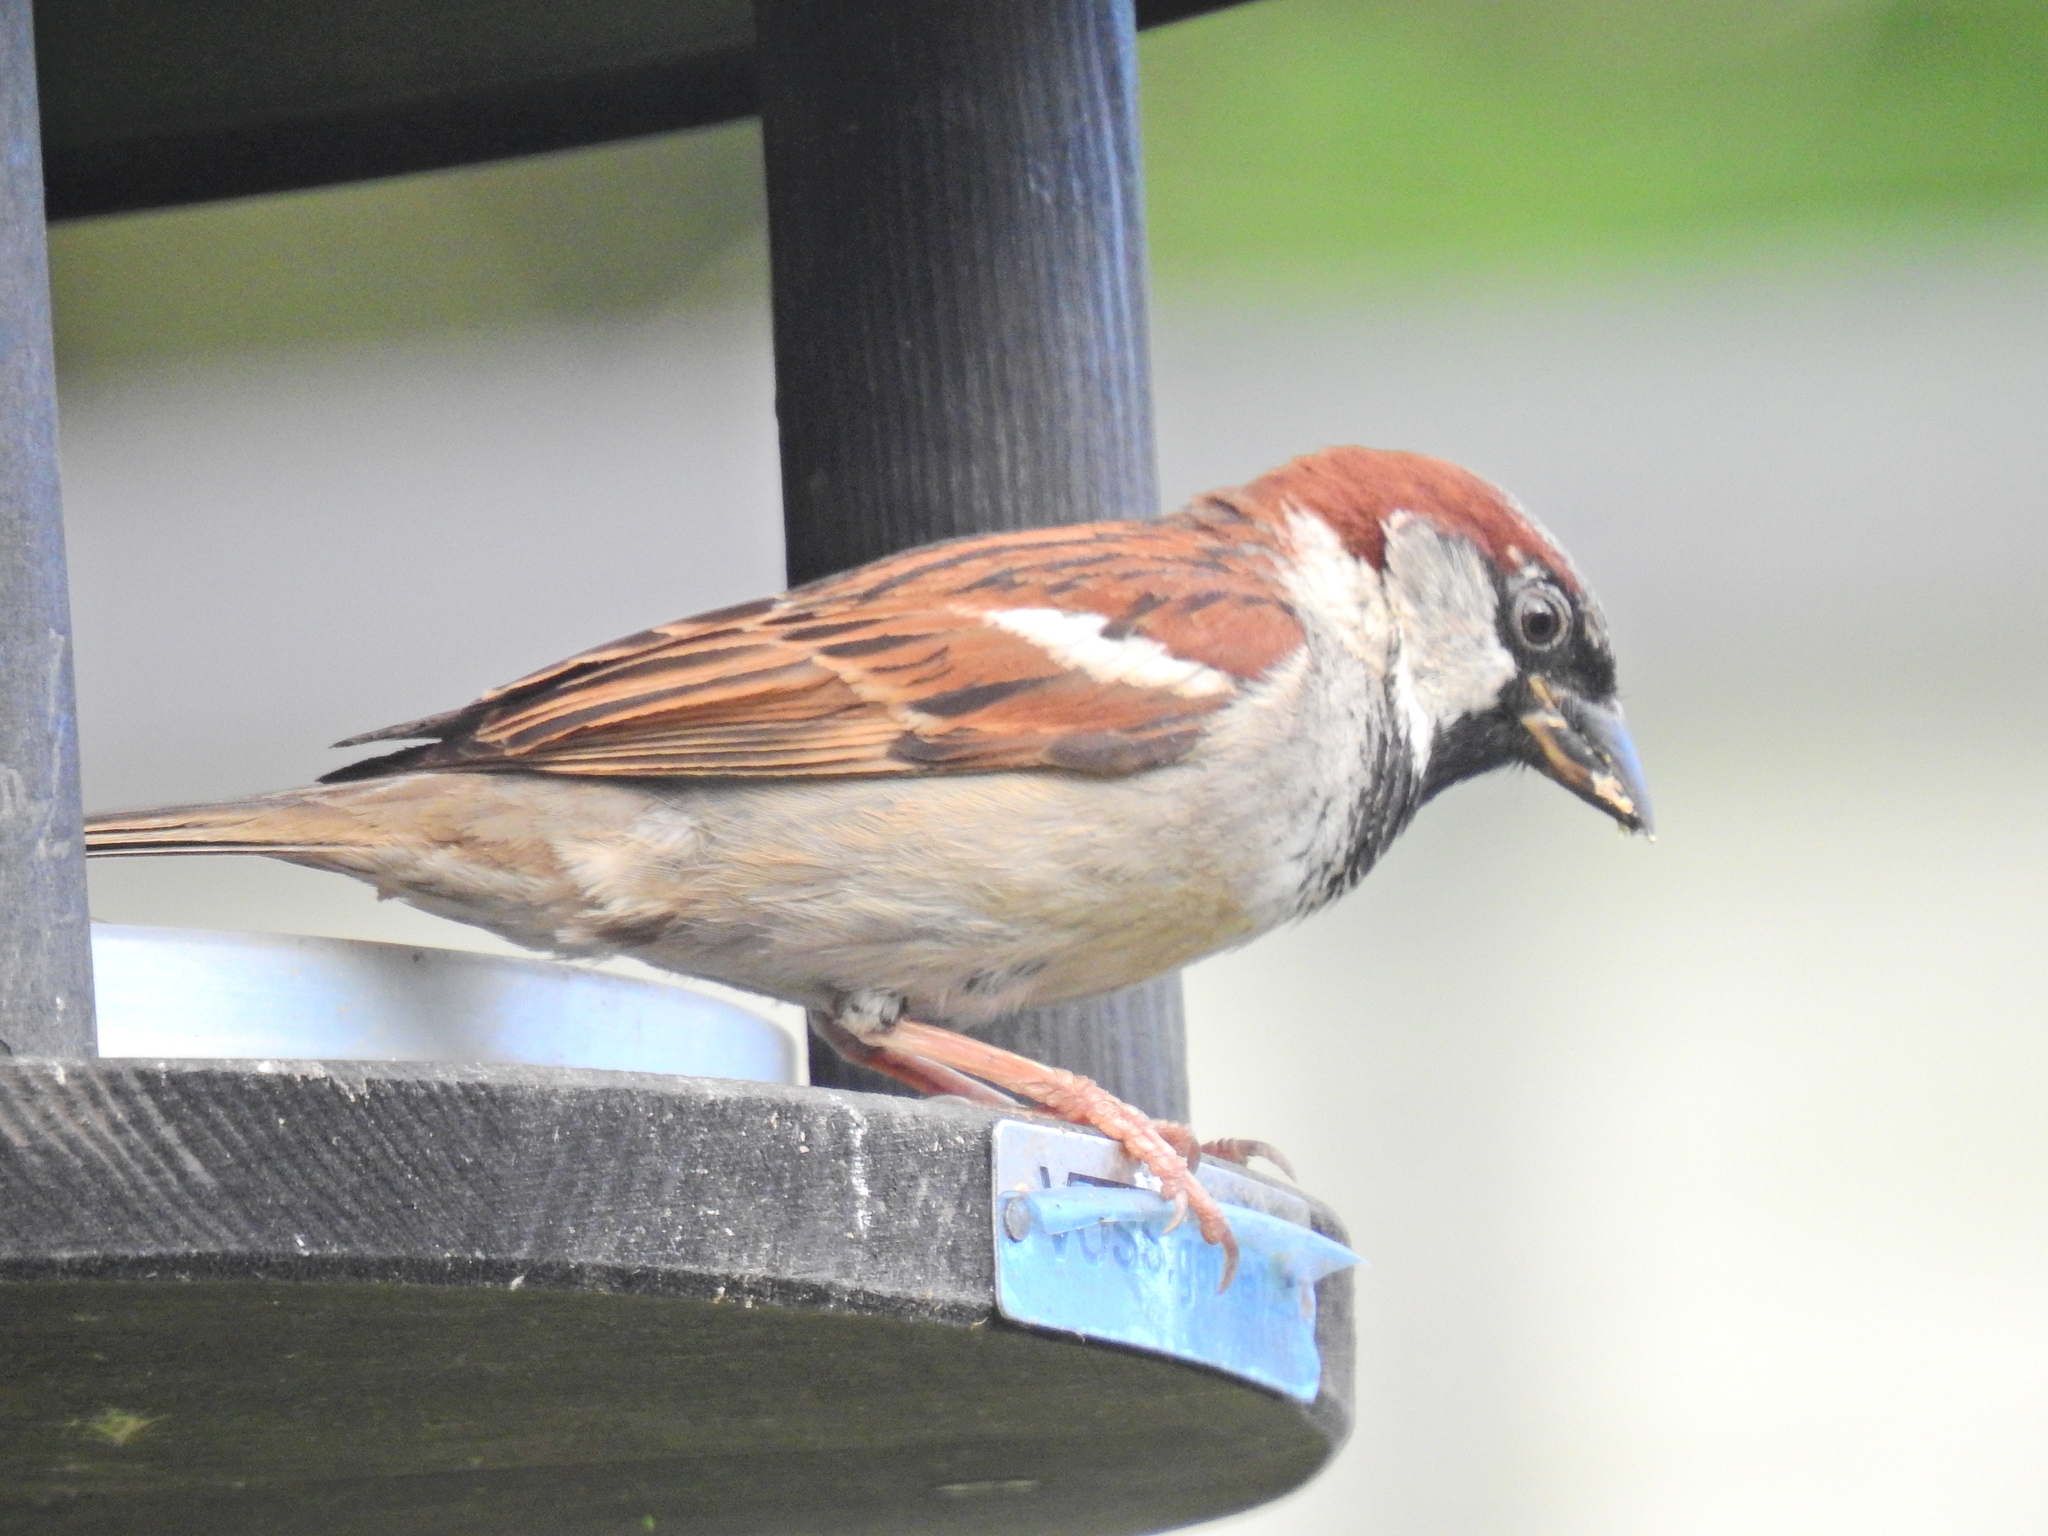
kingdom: Animalia
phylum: Chordata
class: Aves
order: Passeriformes
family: Passeridae
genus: Passer
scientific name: Passer domesticus
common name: House sparrow
